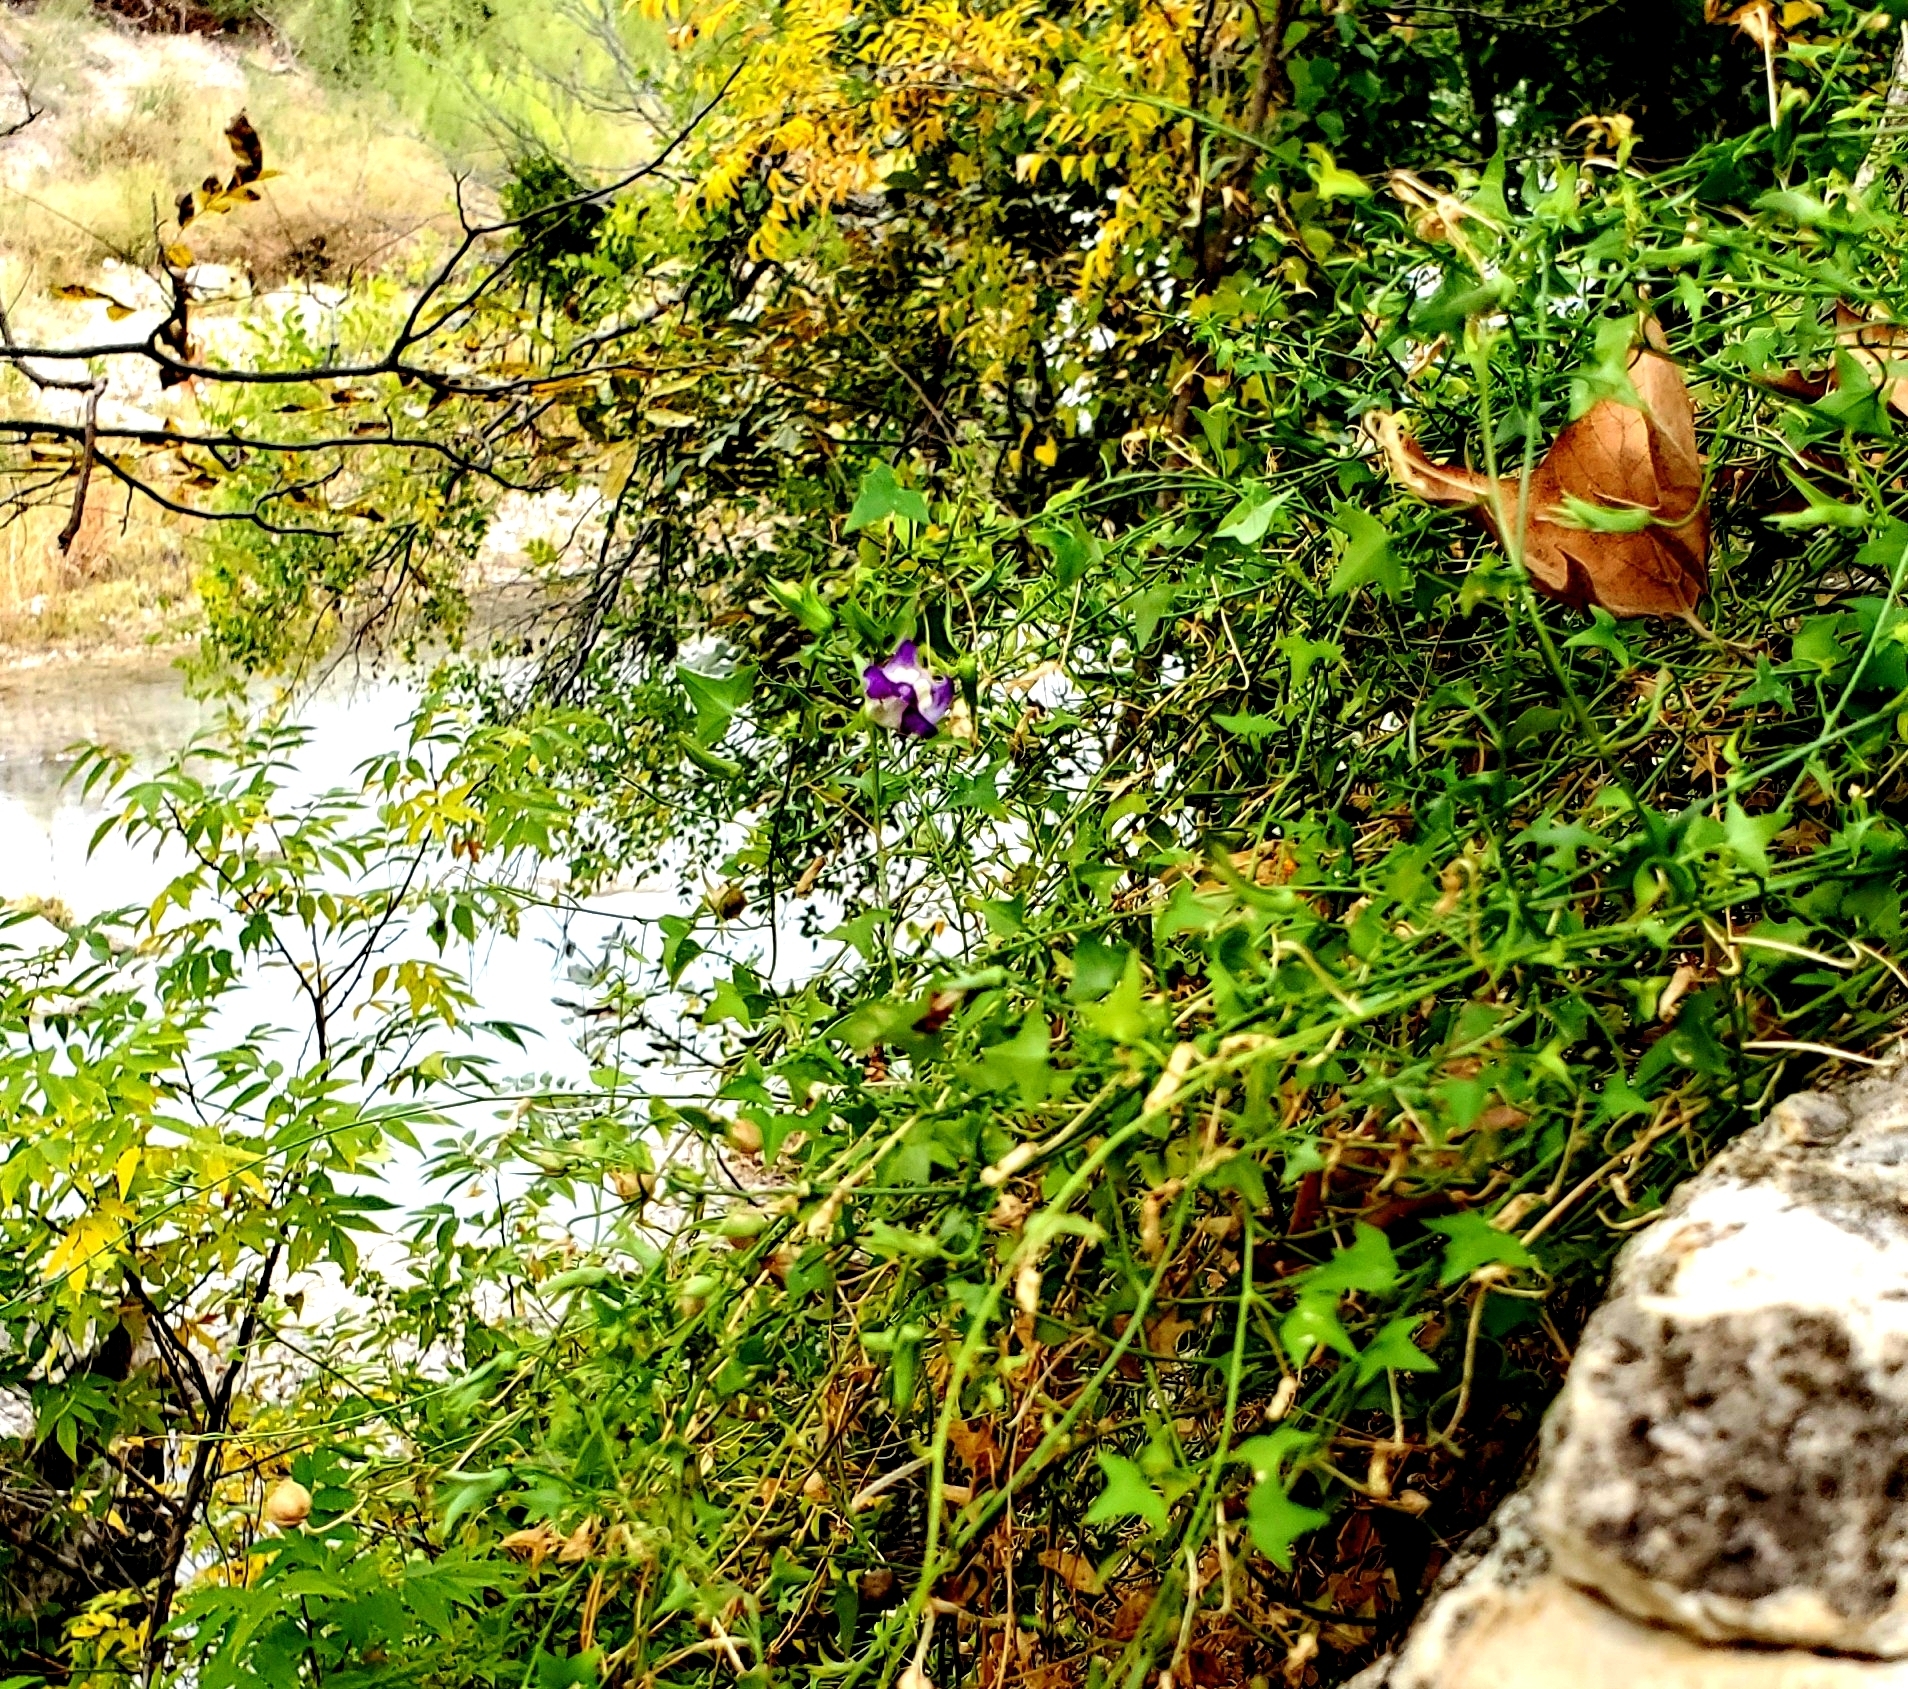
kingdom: Plantae
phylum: Tracheophyta
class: Magnoliopsida
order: Lamiales
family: Plantaginaceae
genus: Maurandella
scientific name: Maurandella antirrhiniflora
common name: Violet twining-snapdragon
